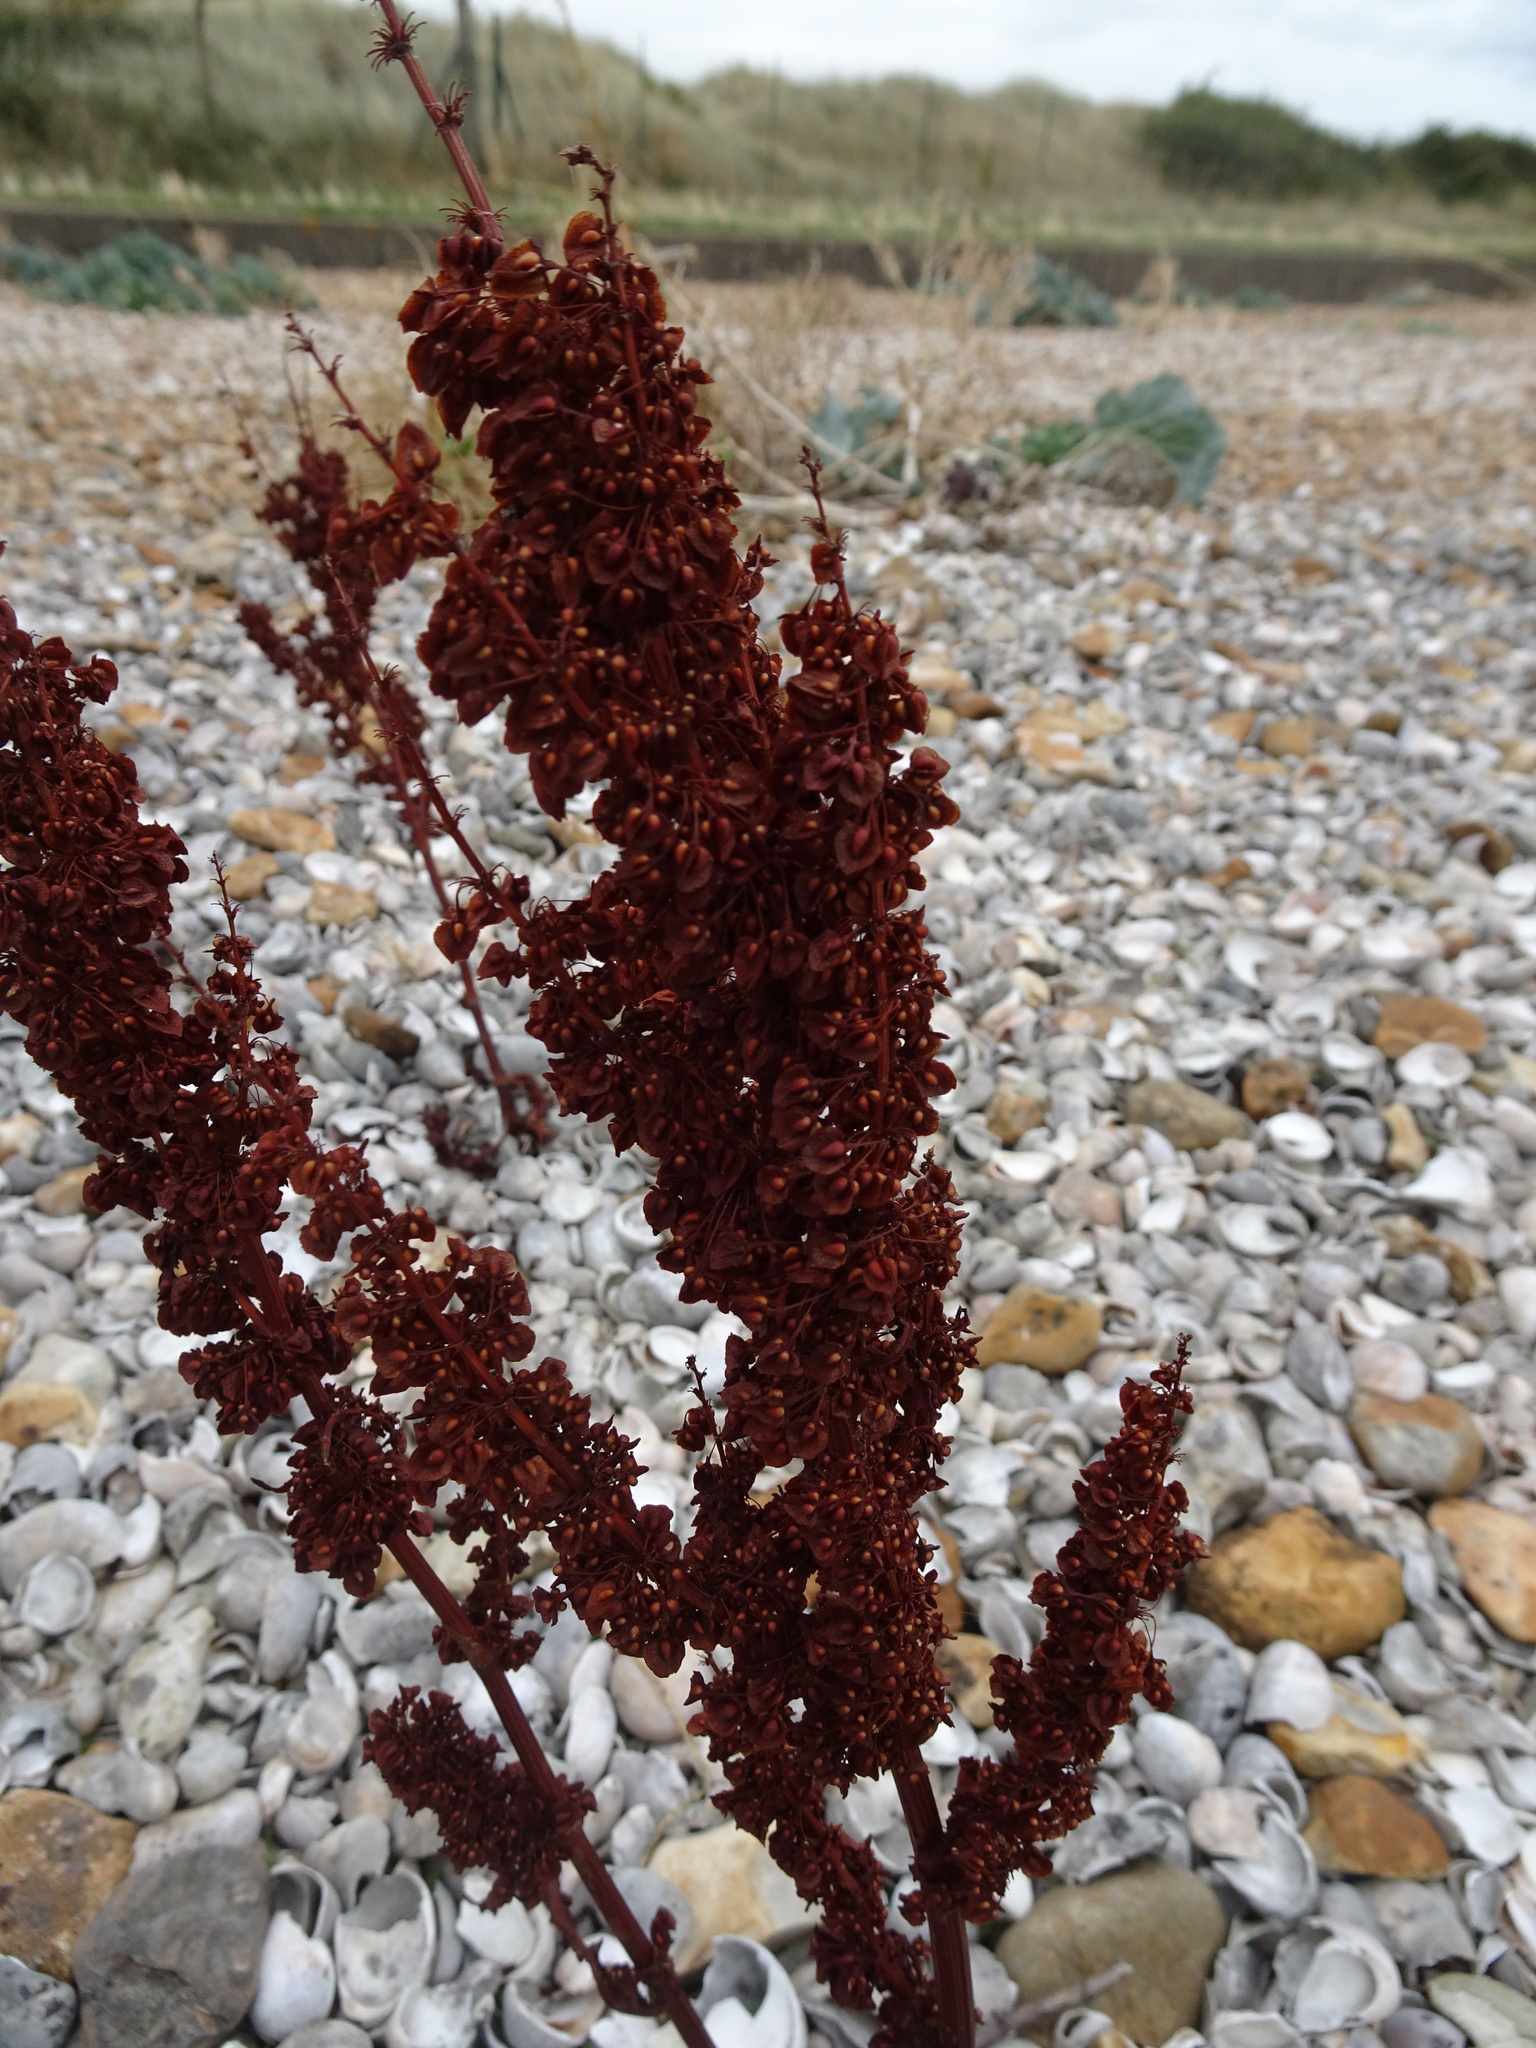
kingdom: Plantae
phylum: Tracheophyta
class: Magnoliopsida
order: Caryophyllales
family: Polygonaceae
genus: Rumex
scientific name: Rumex crispus
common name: Curled dock
